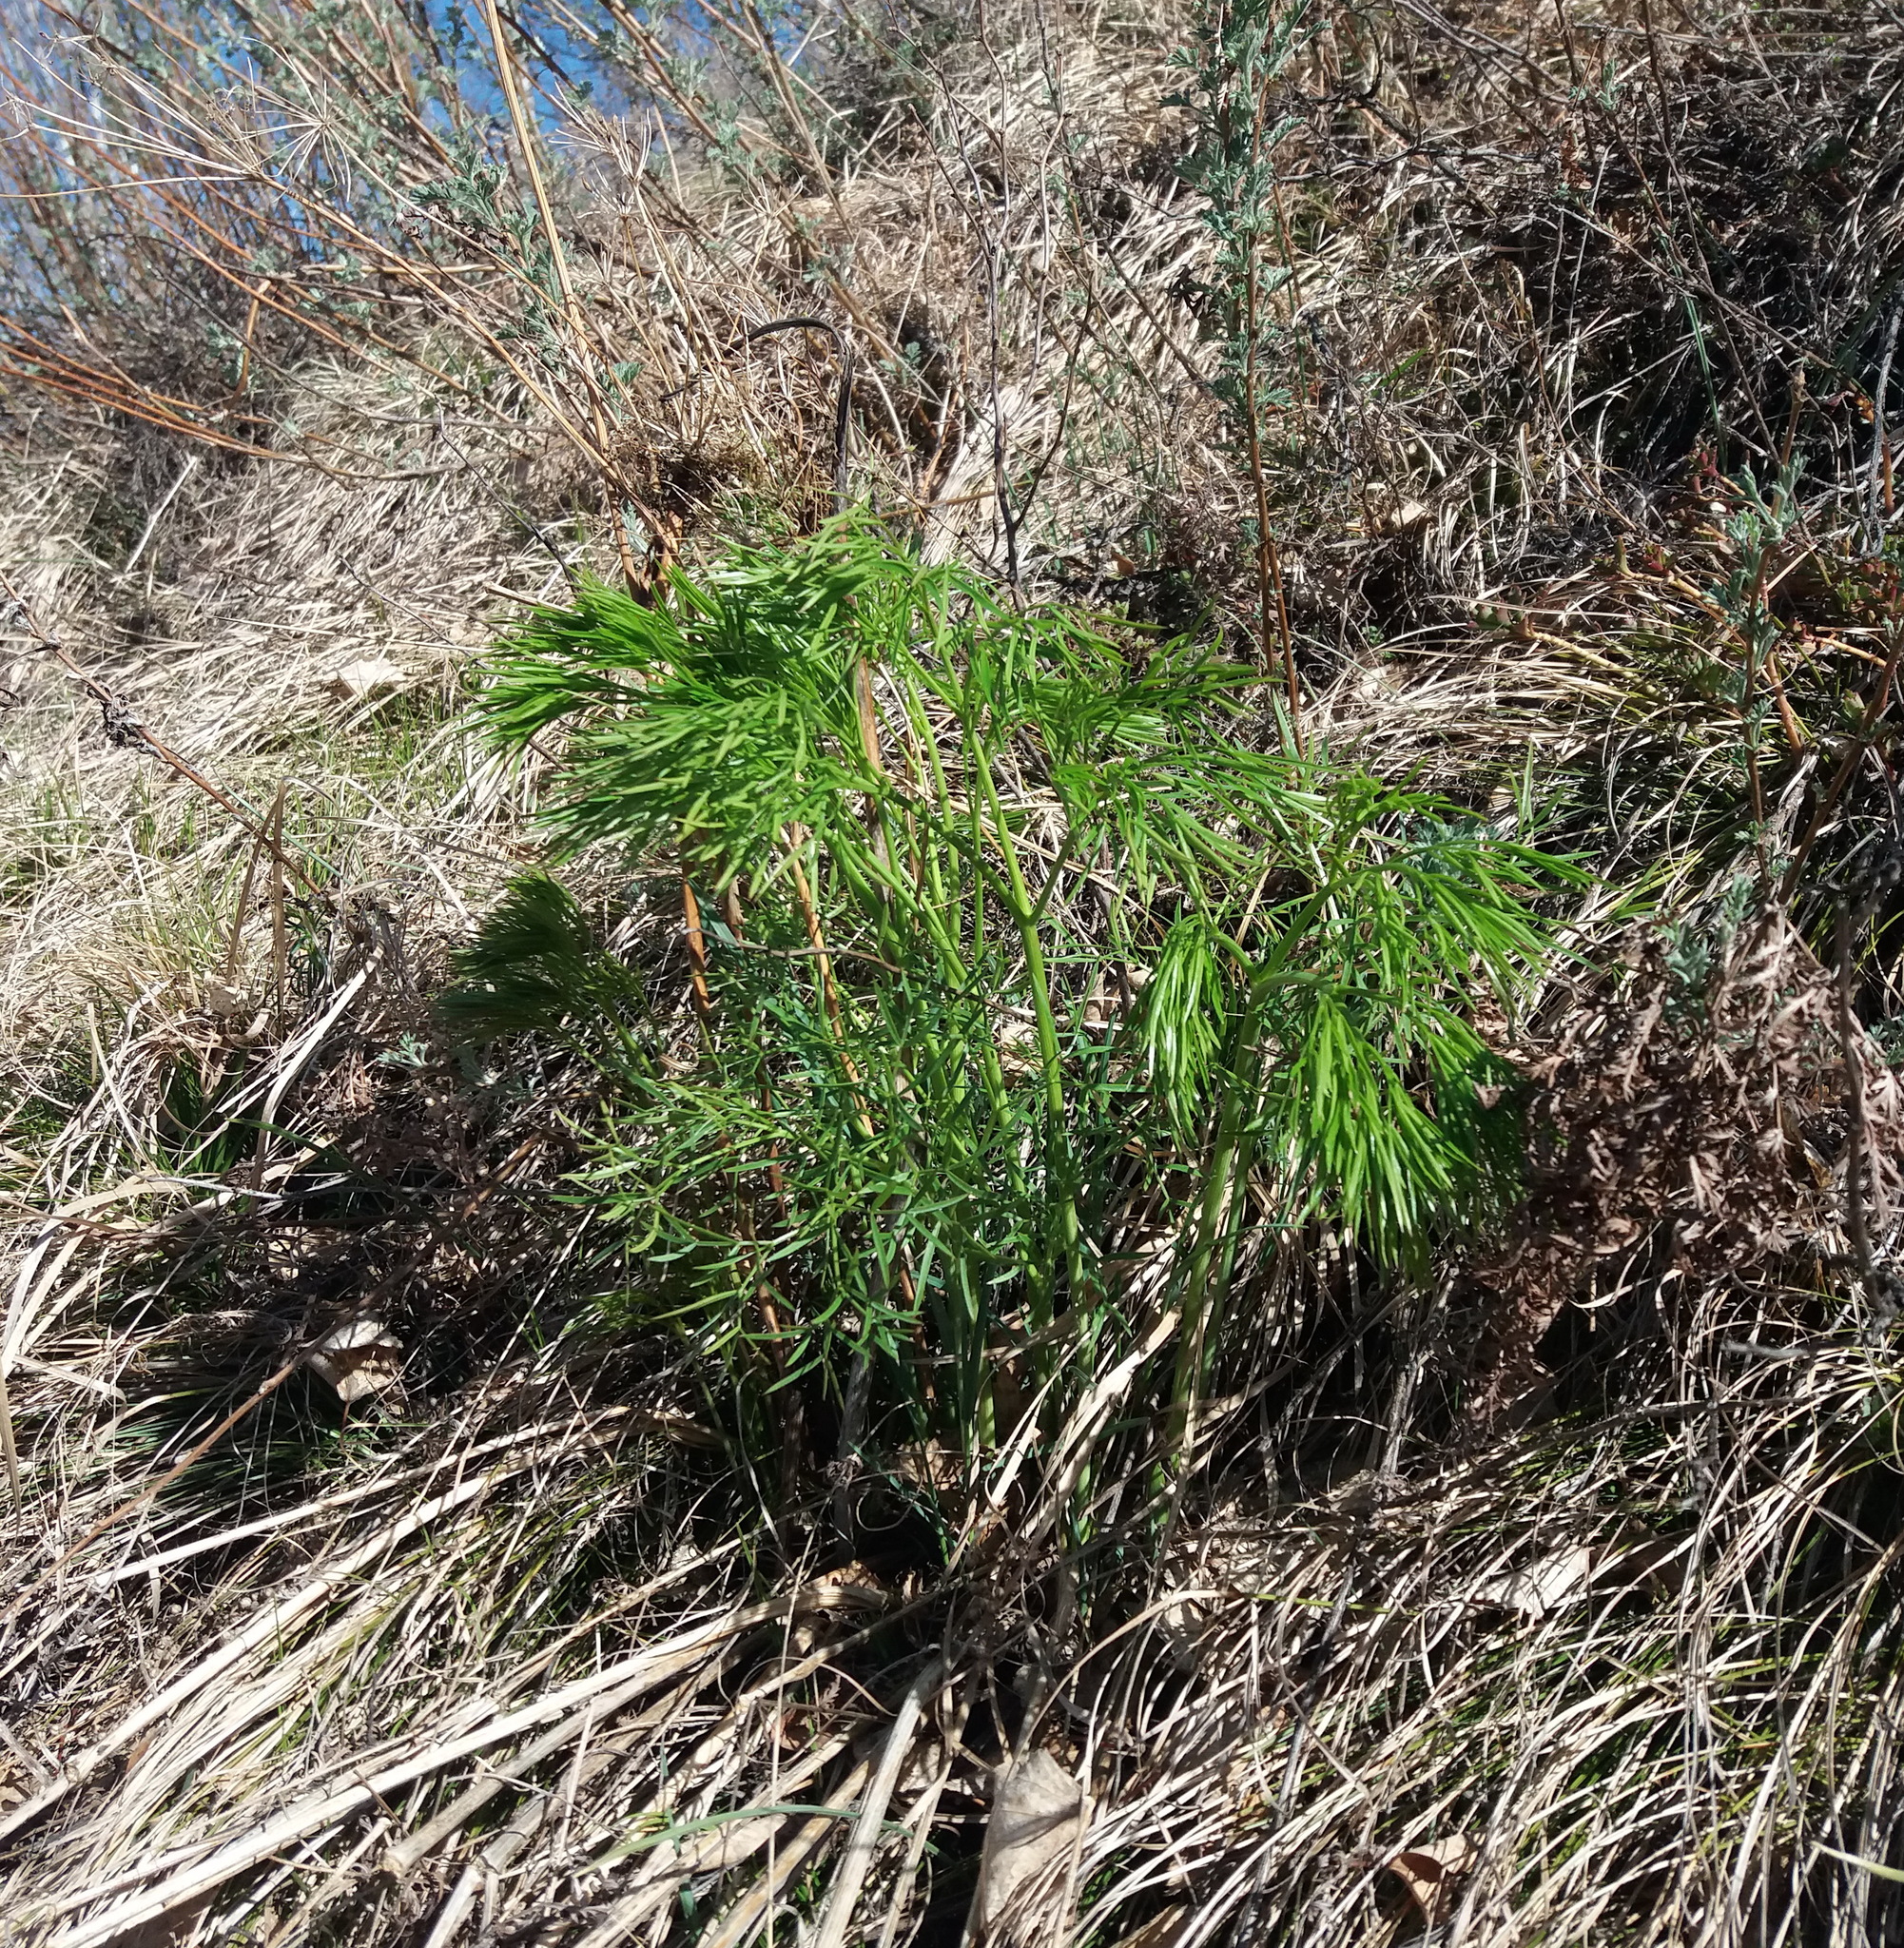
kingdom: Plantae
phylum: Tracheophyta
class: Magnoliopsida
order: Apiales
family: Apiaceae
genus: Peucedanum
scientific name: Peucedanum morisonii
